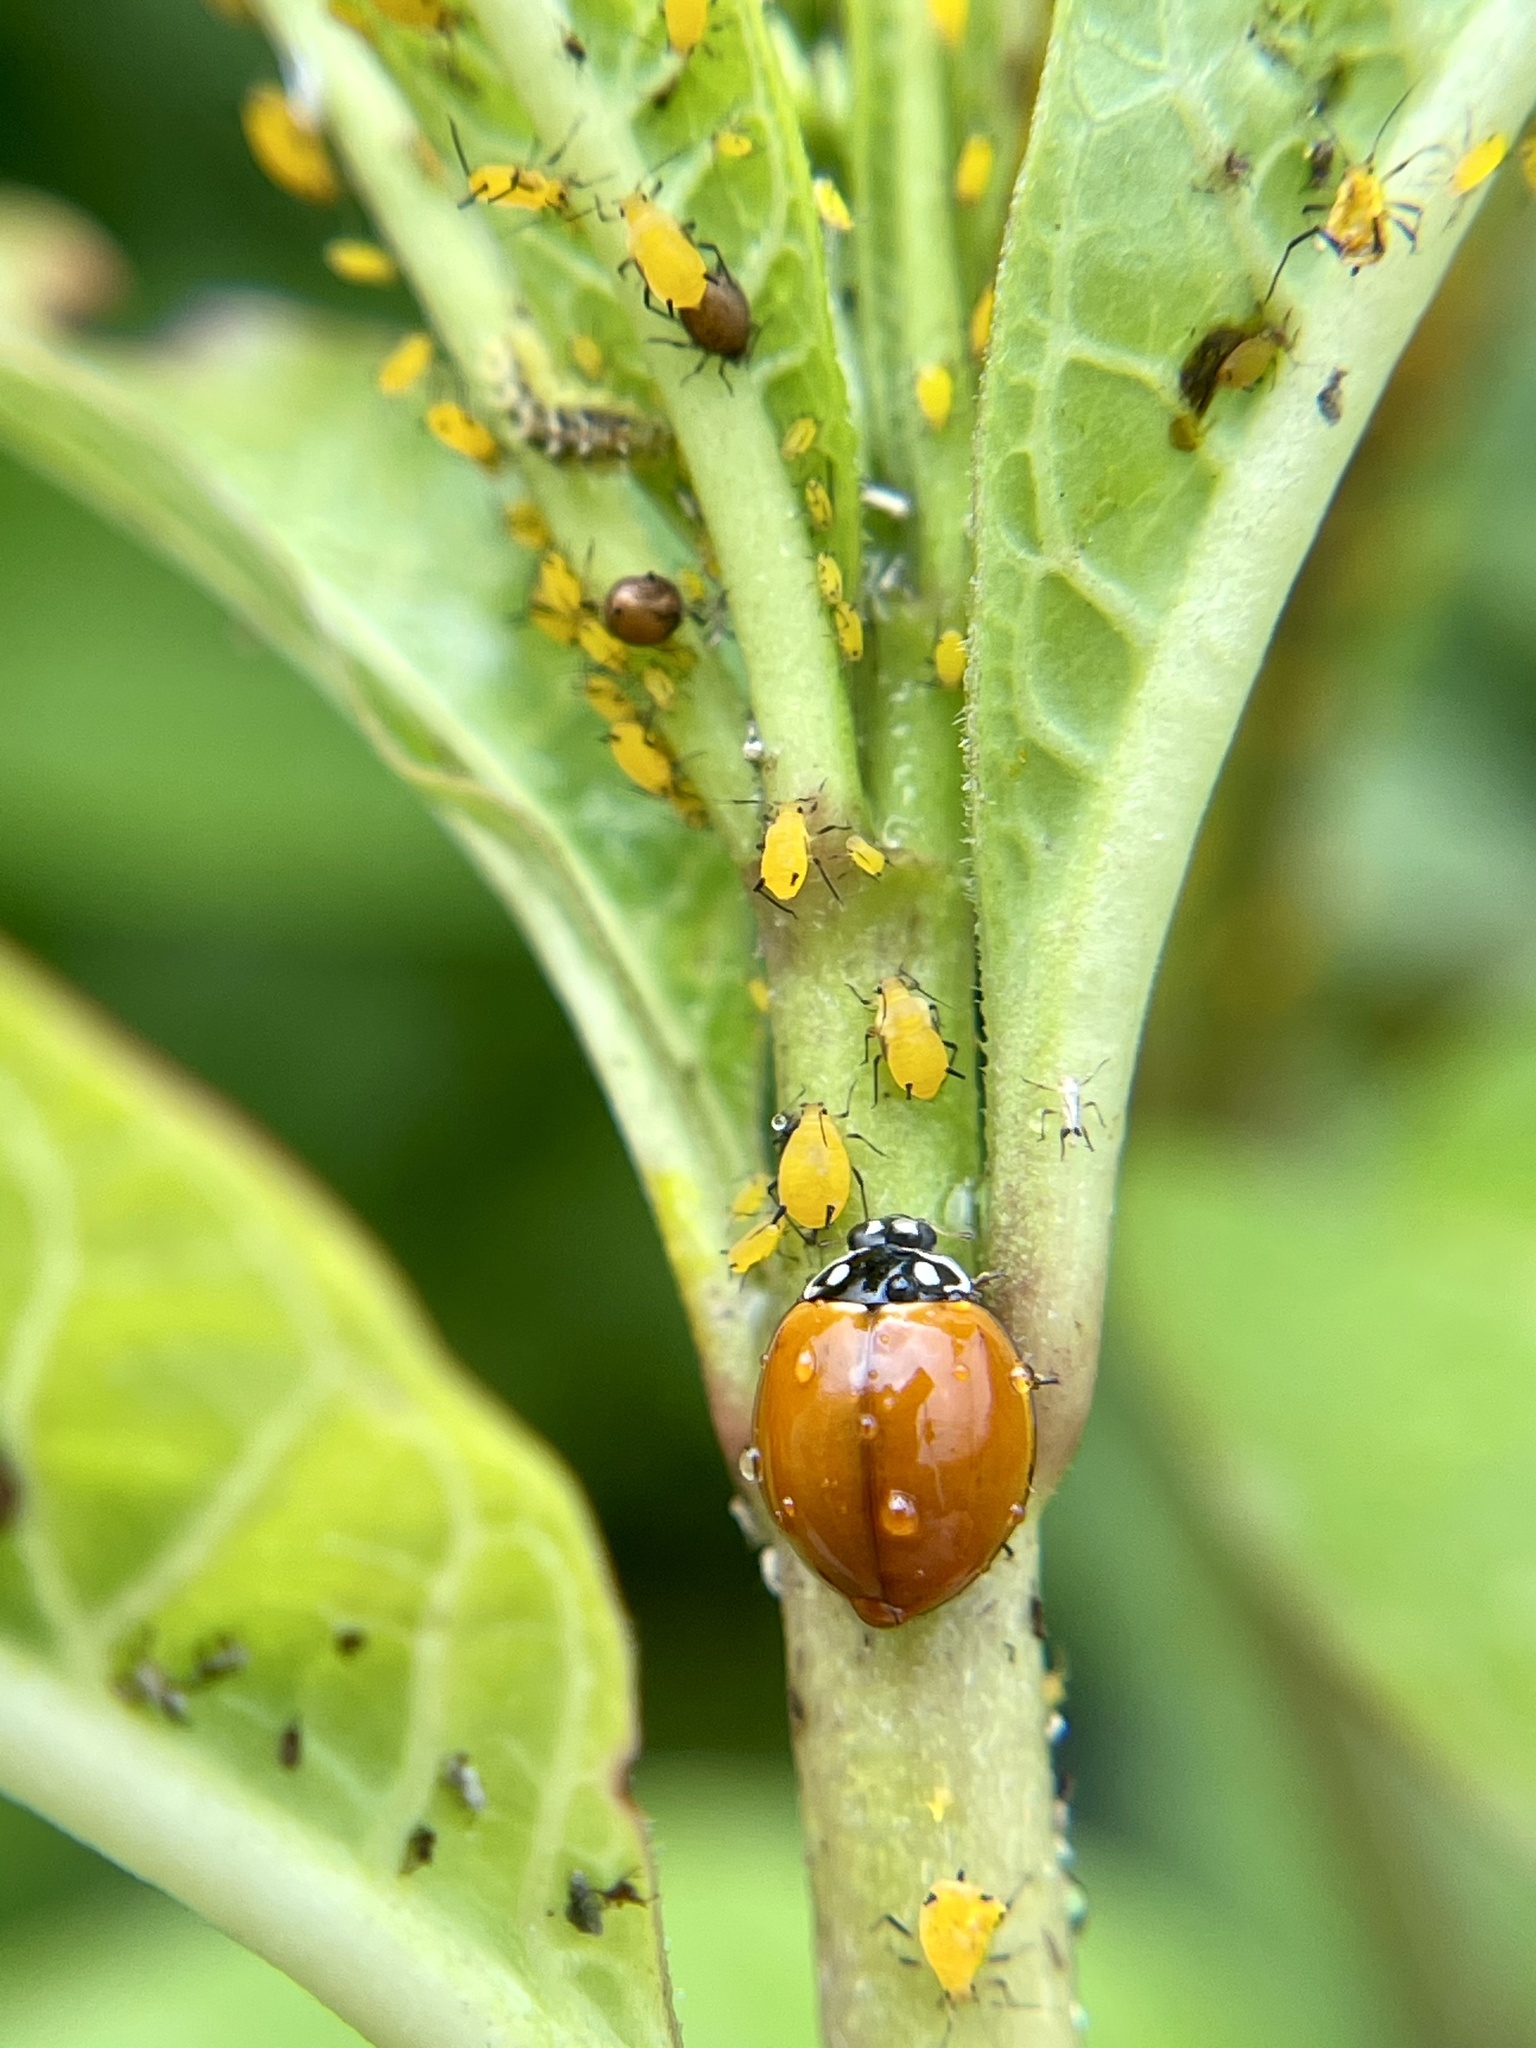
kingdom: Animalia
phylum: Arthropoda
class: Insecta
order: Hemiptera
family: Aphididae
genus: Aphis
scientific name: Aphis nerii
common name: Oleander aphid
